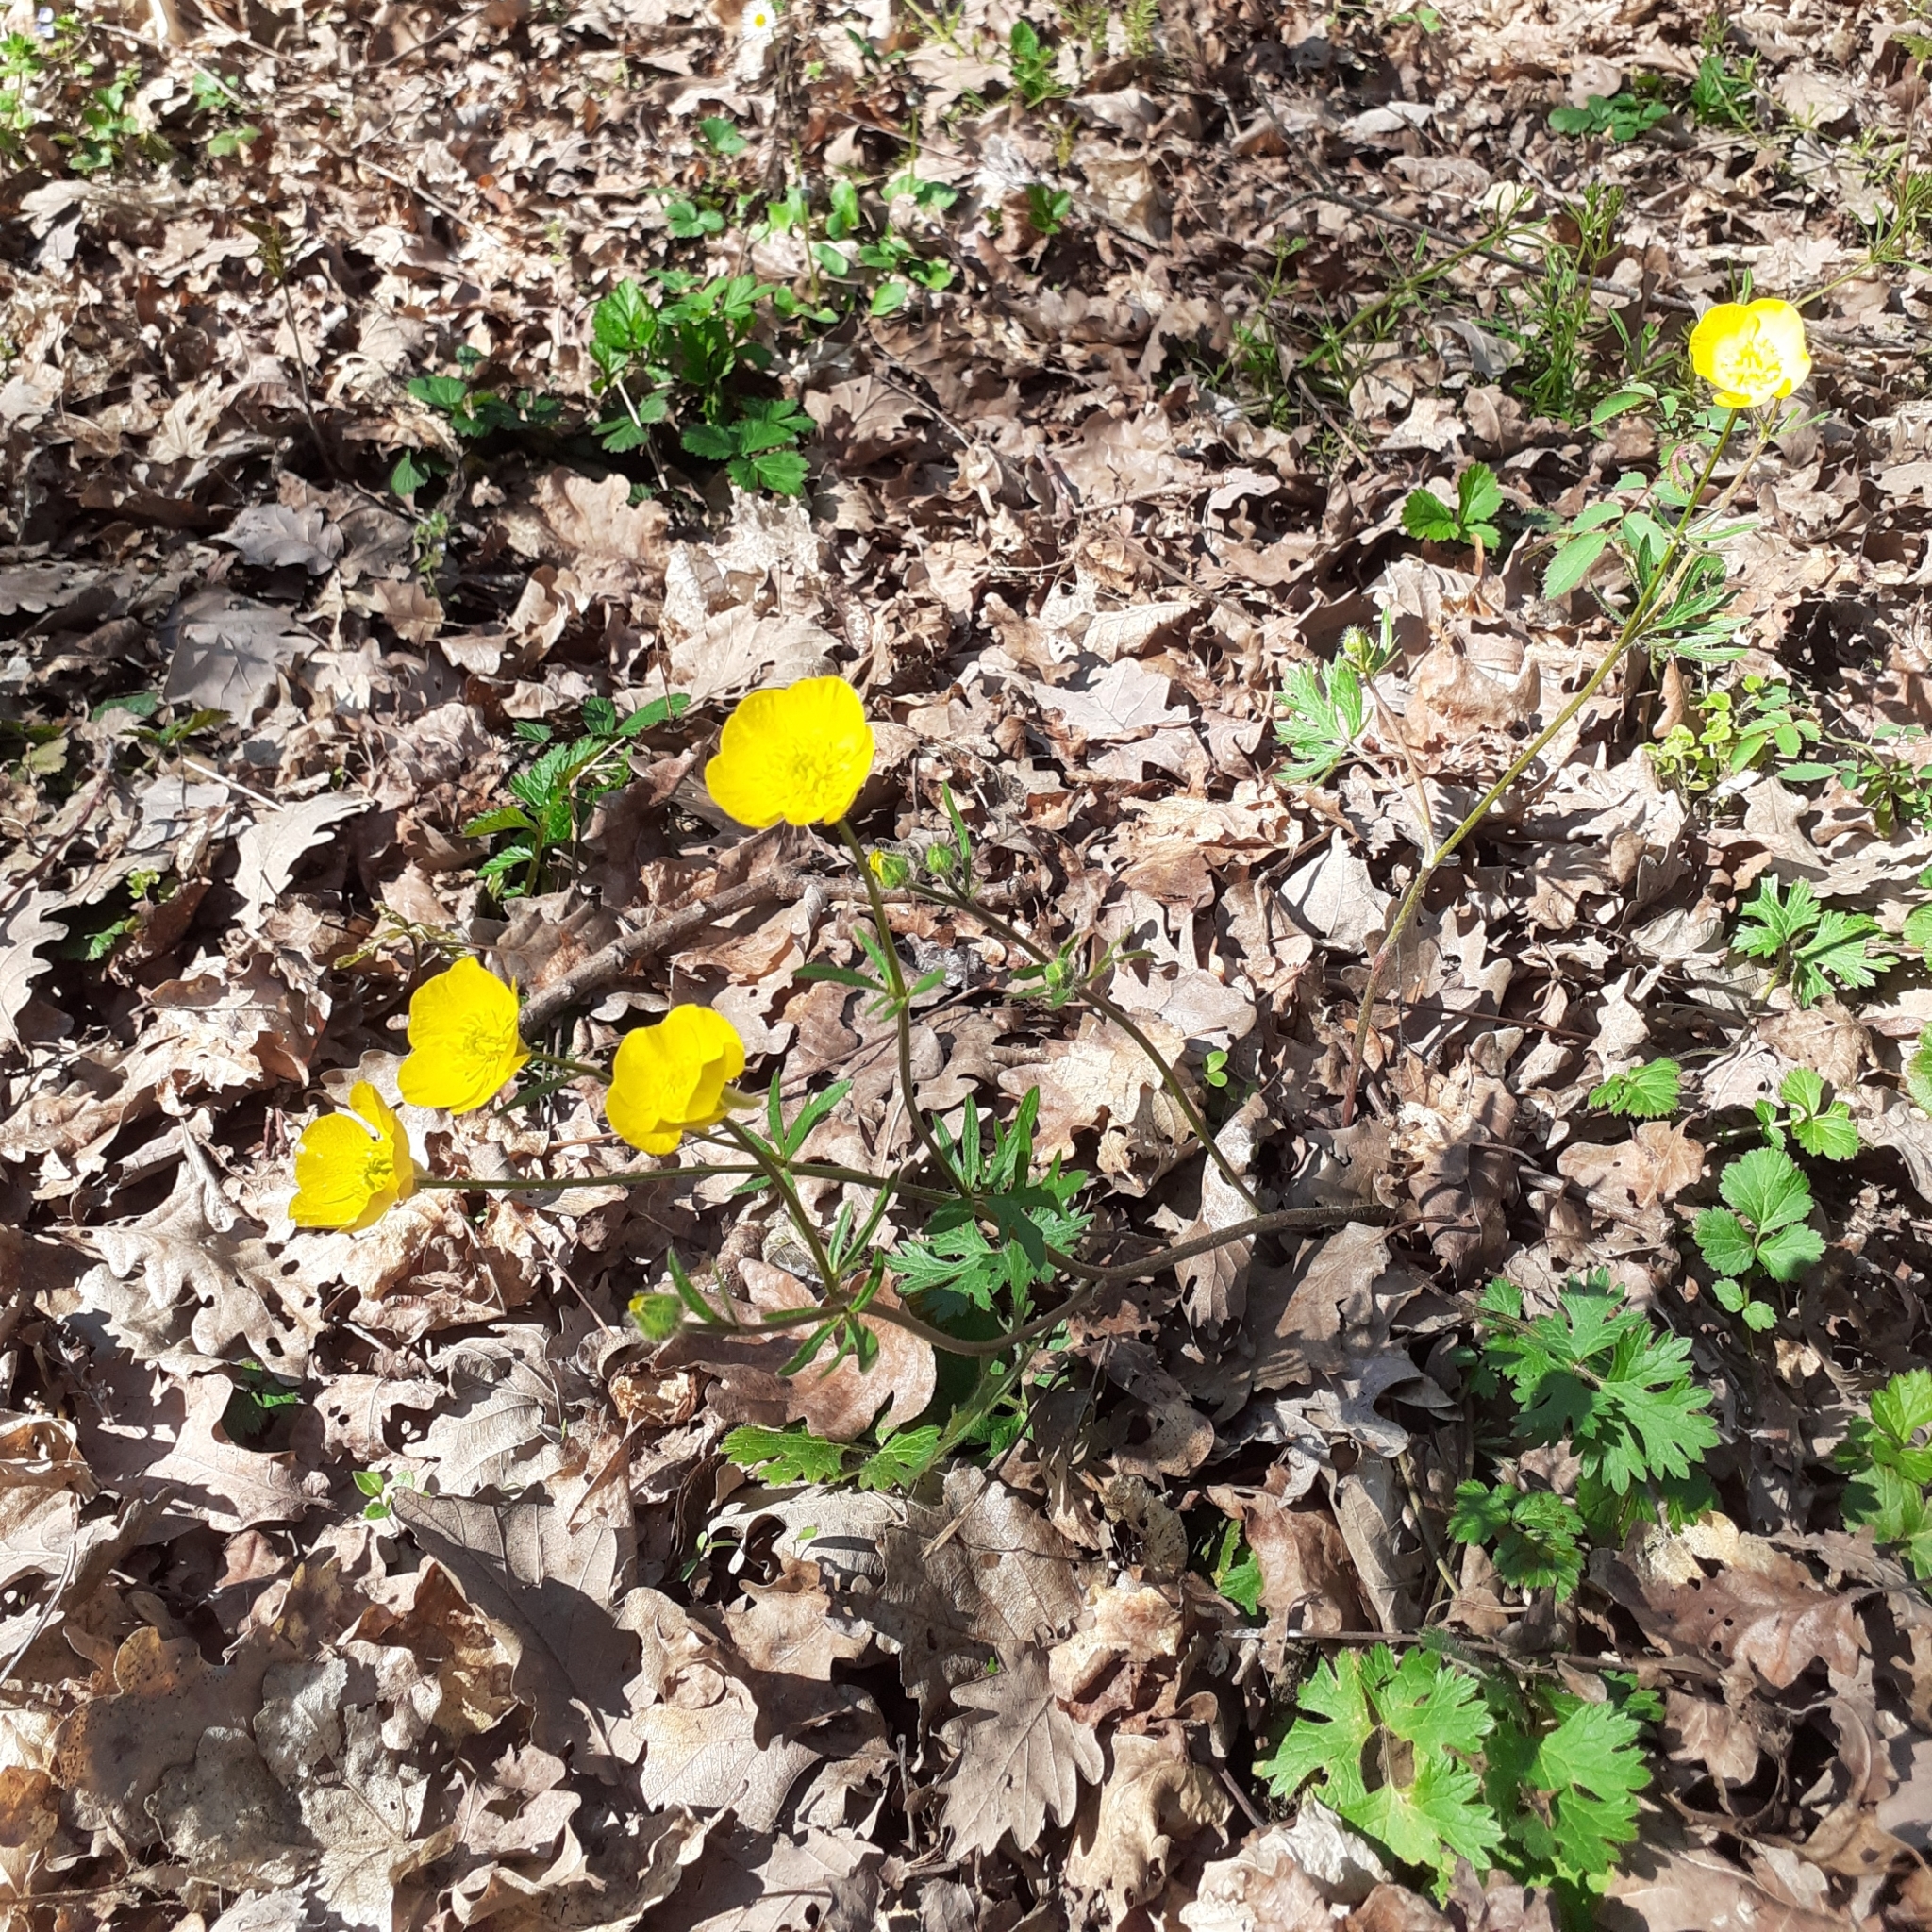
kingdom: Plantae
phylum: Tracheophyta
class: Magnoliopsida
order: Ranunculales
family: Ranunculaceae
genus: Ranunculus
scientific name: Ranunculus bulbosus
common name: Bulbous buttercup
